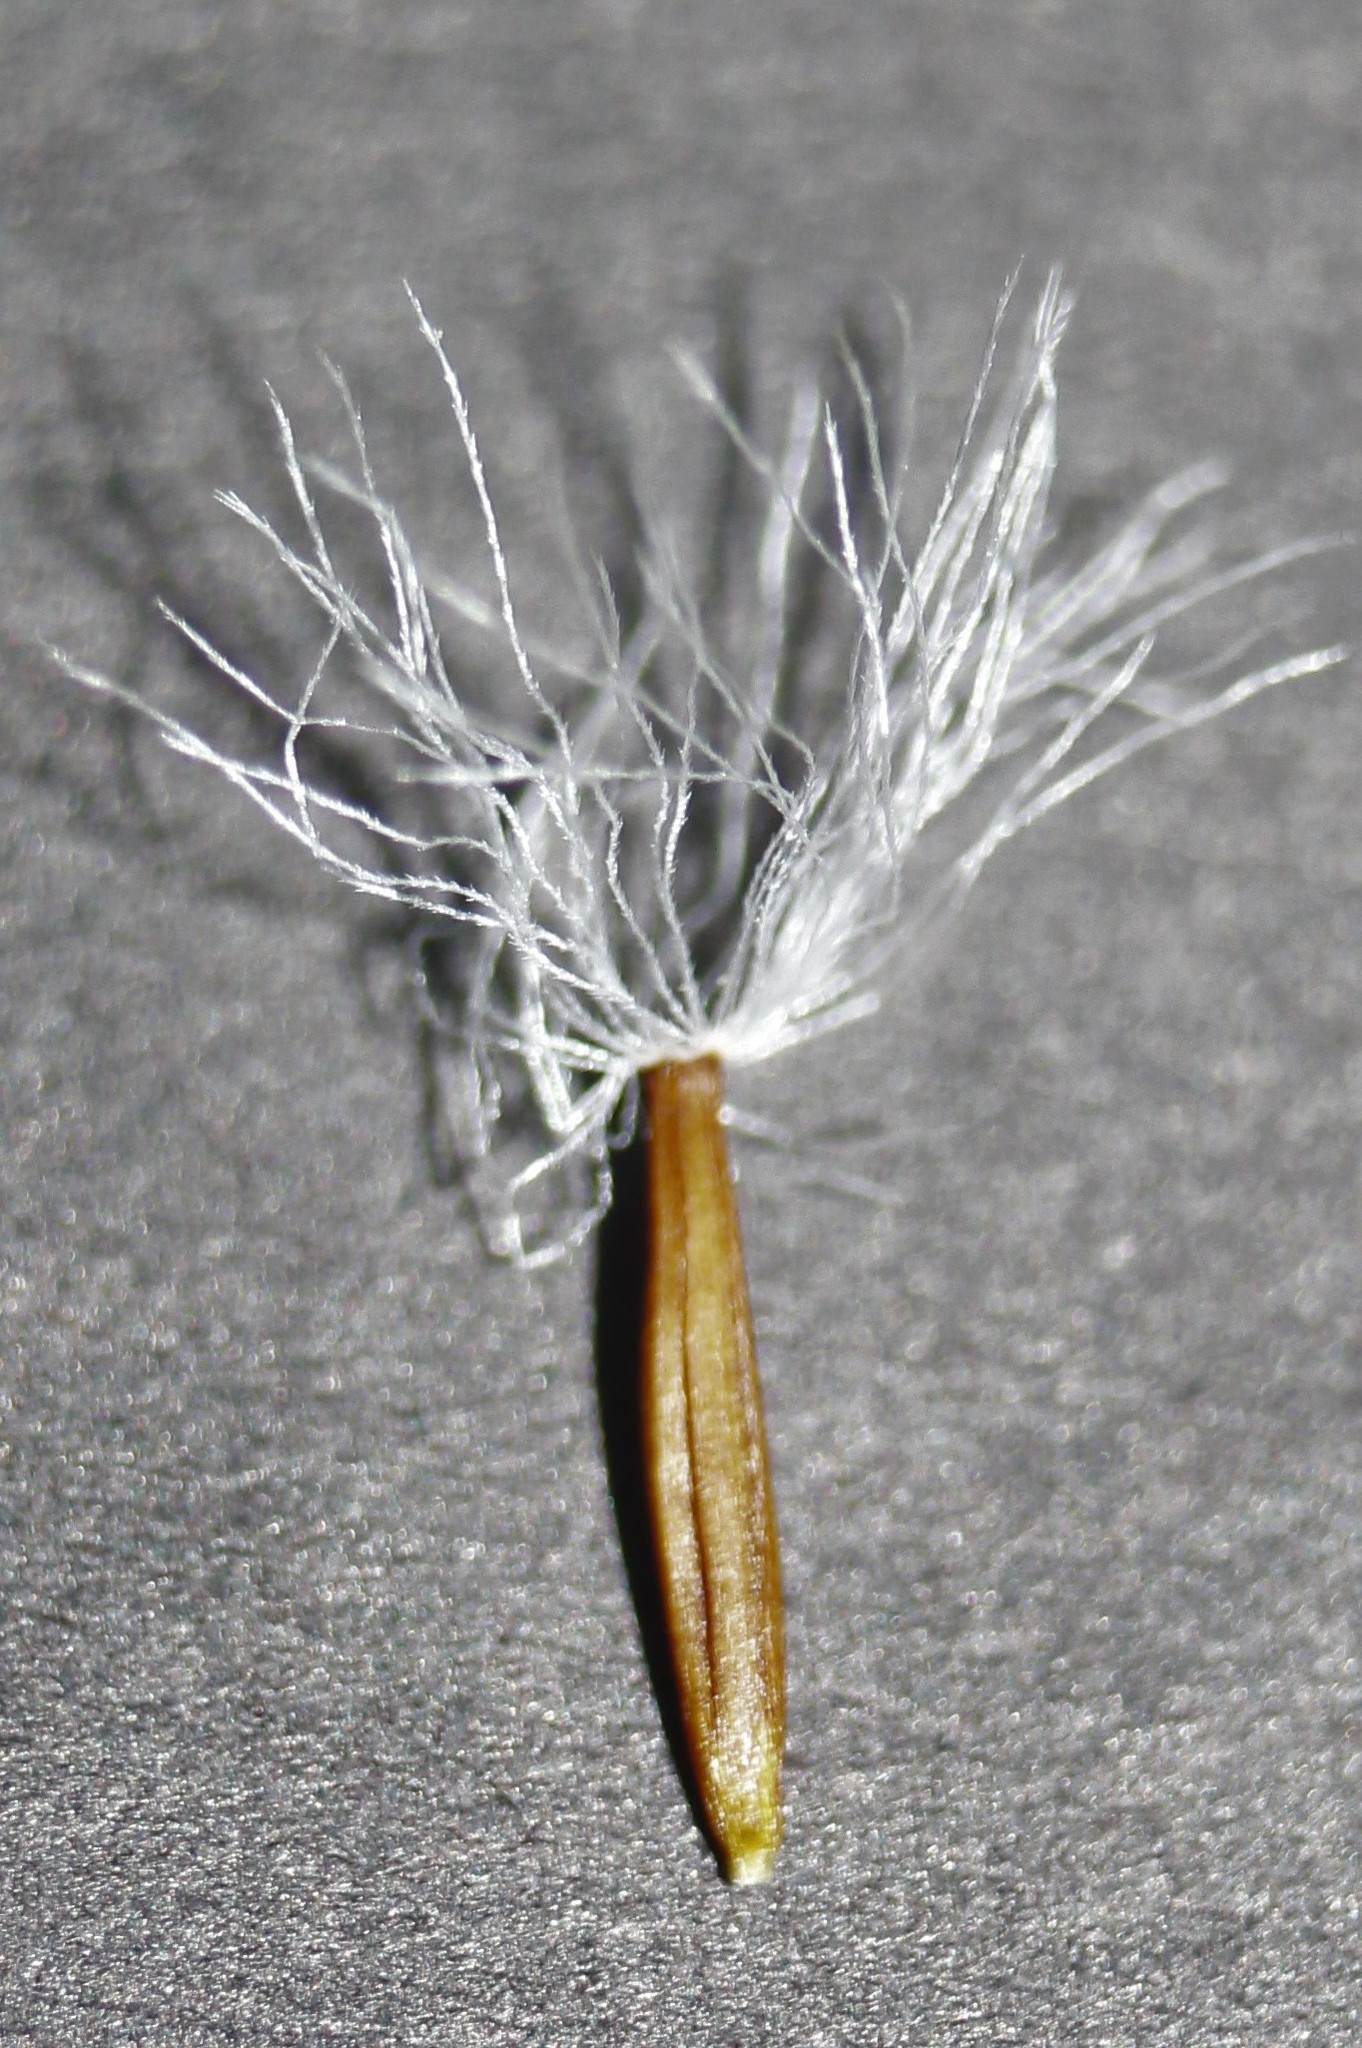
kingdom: Plantae
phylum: Tracheophyta
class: Magnoliopsida
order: Asterales
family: Asteraceae
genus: Brachyglottis
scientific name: Brachyglottis lagopus
